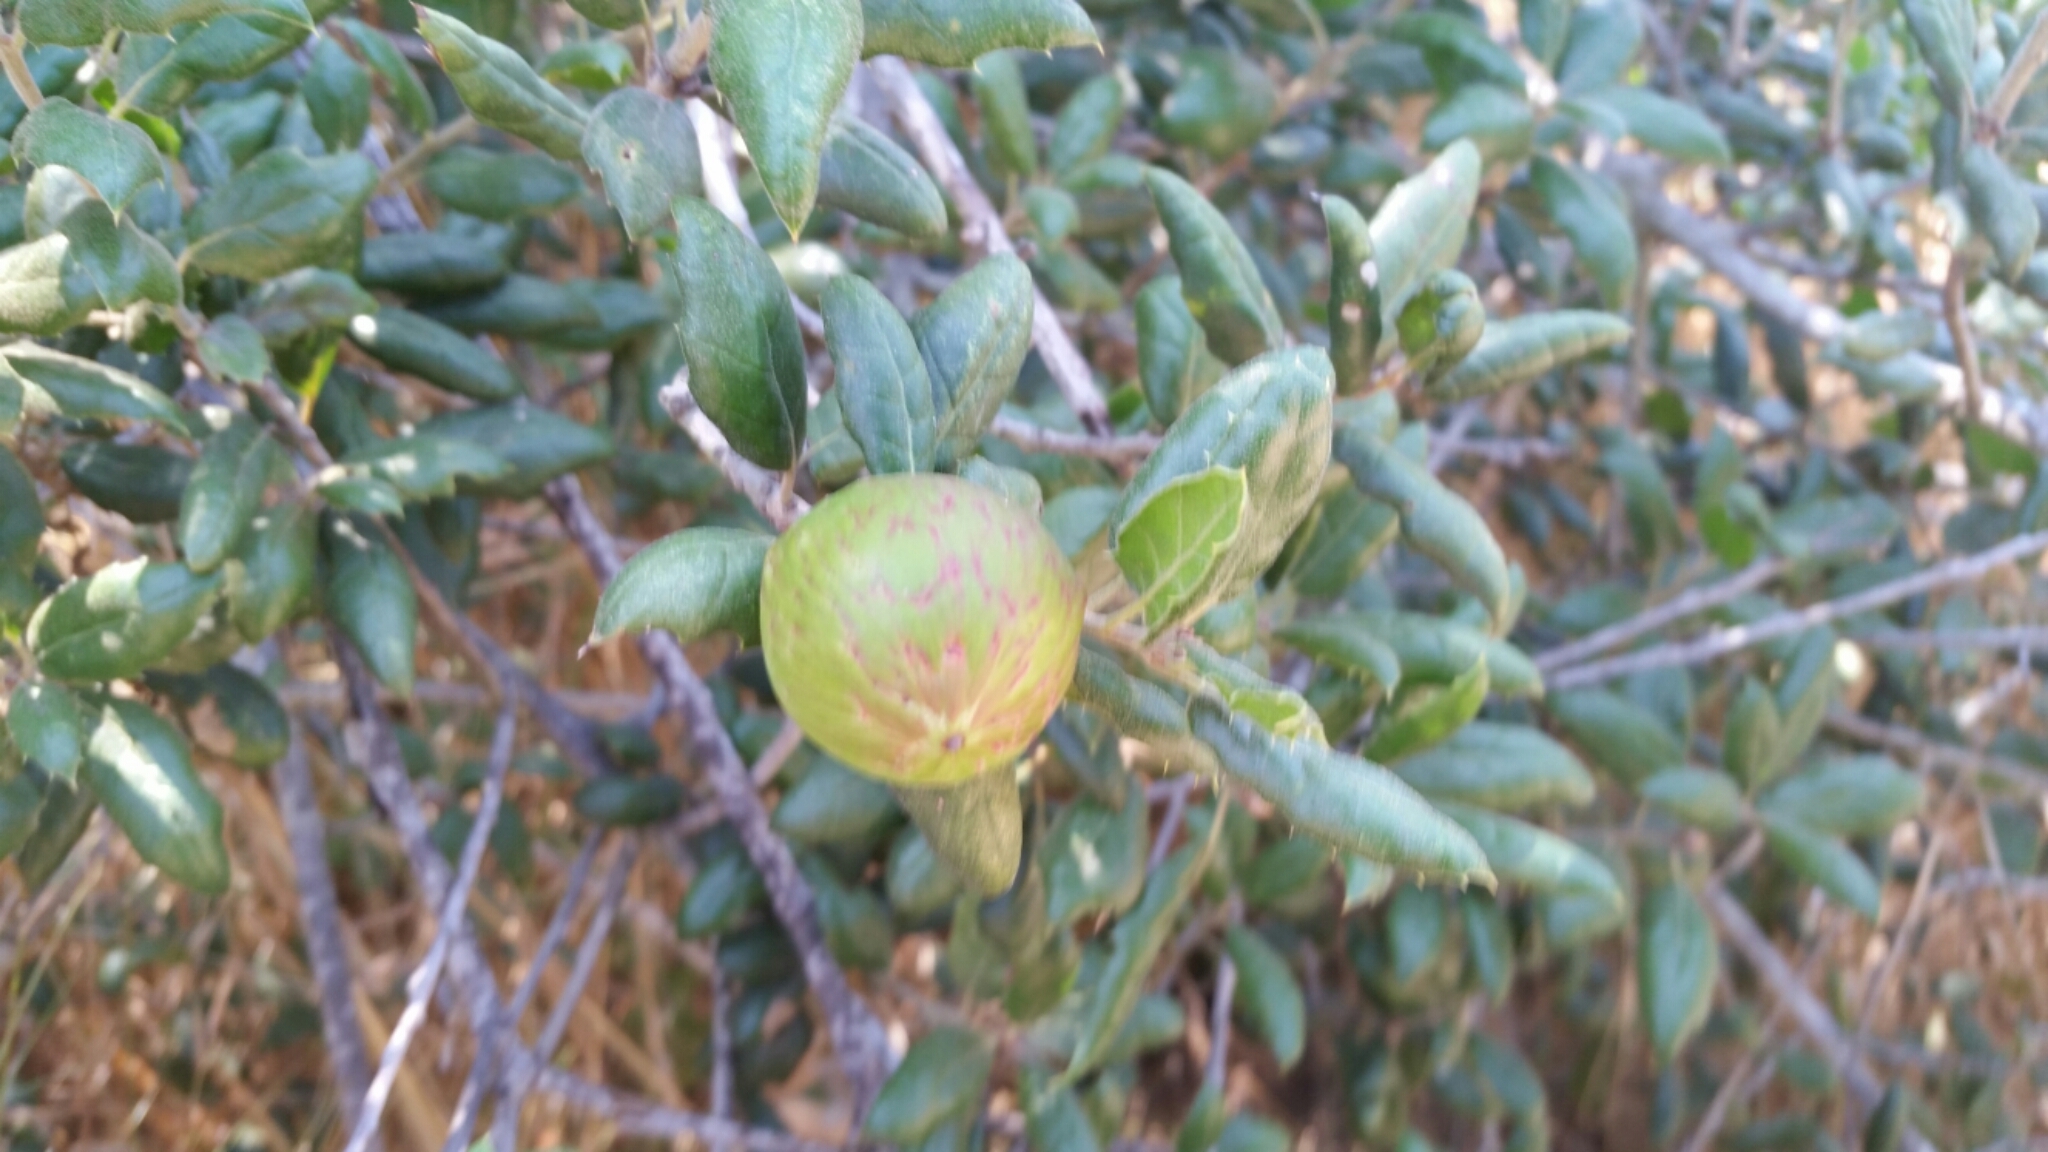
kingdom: Animalia
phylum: Arthropoda
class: Insecta
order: Hymenoptera
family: Cynipidae
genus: Amphibolips
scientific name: Amphibolips quercuspomiformis
